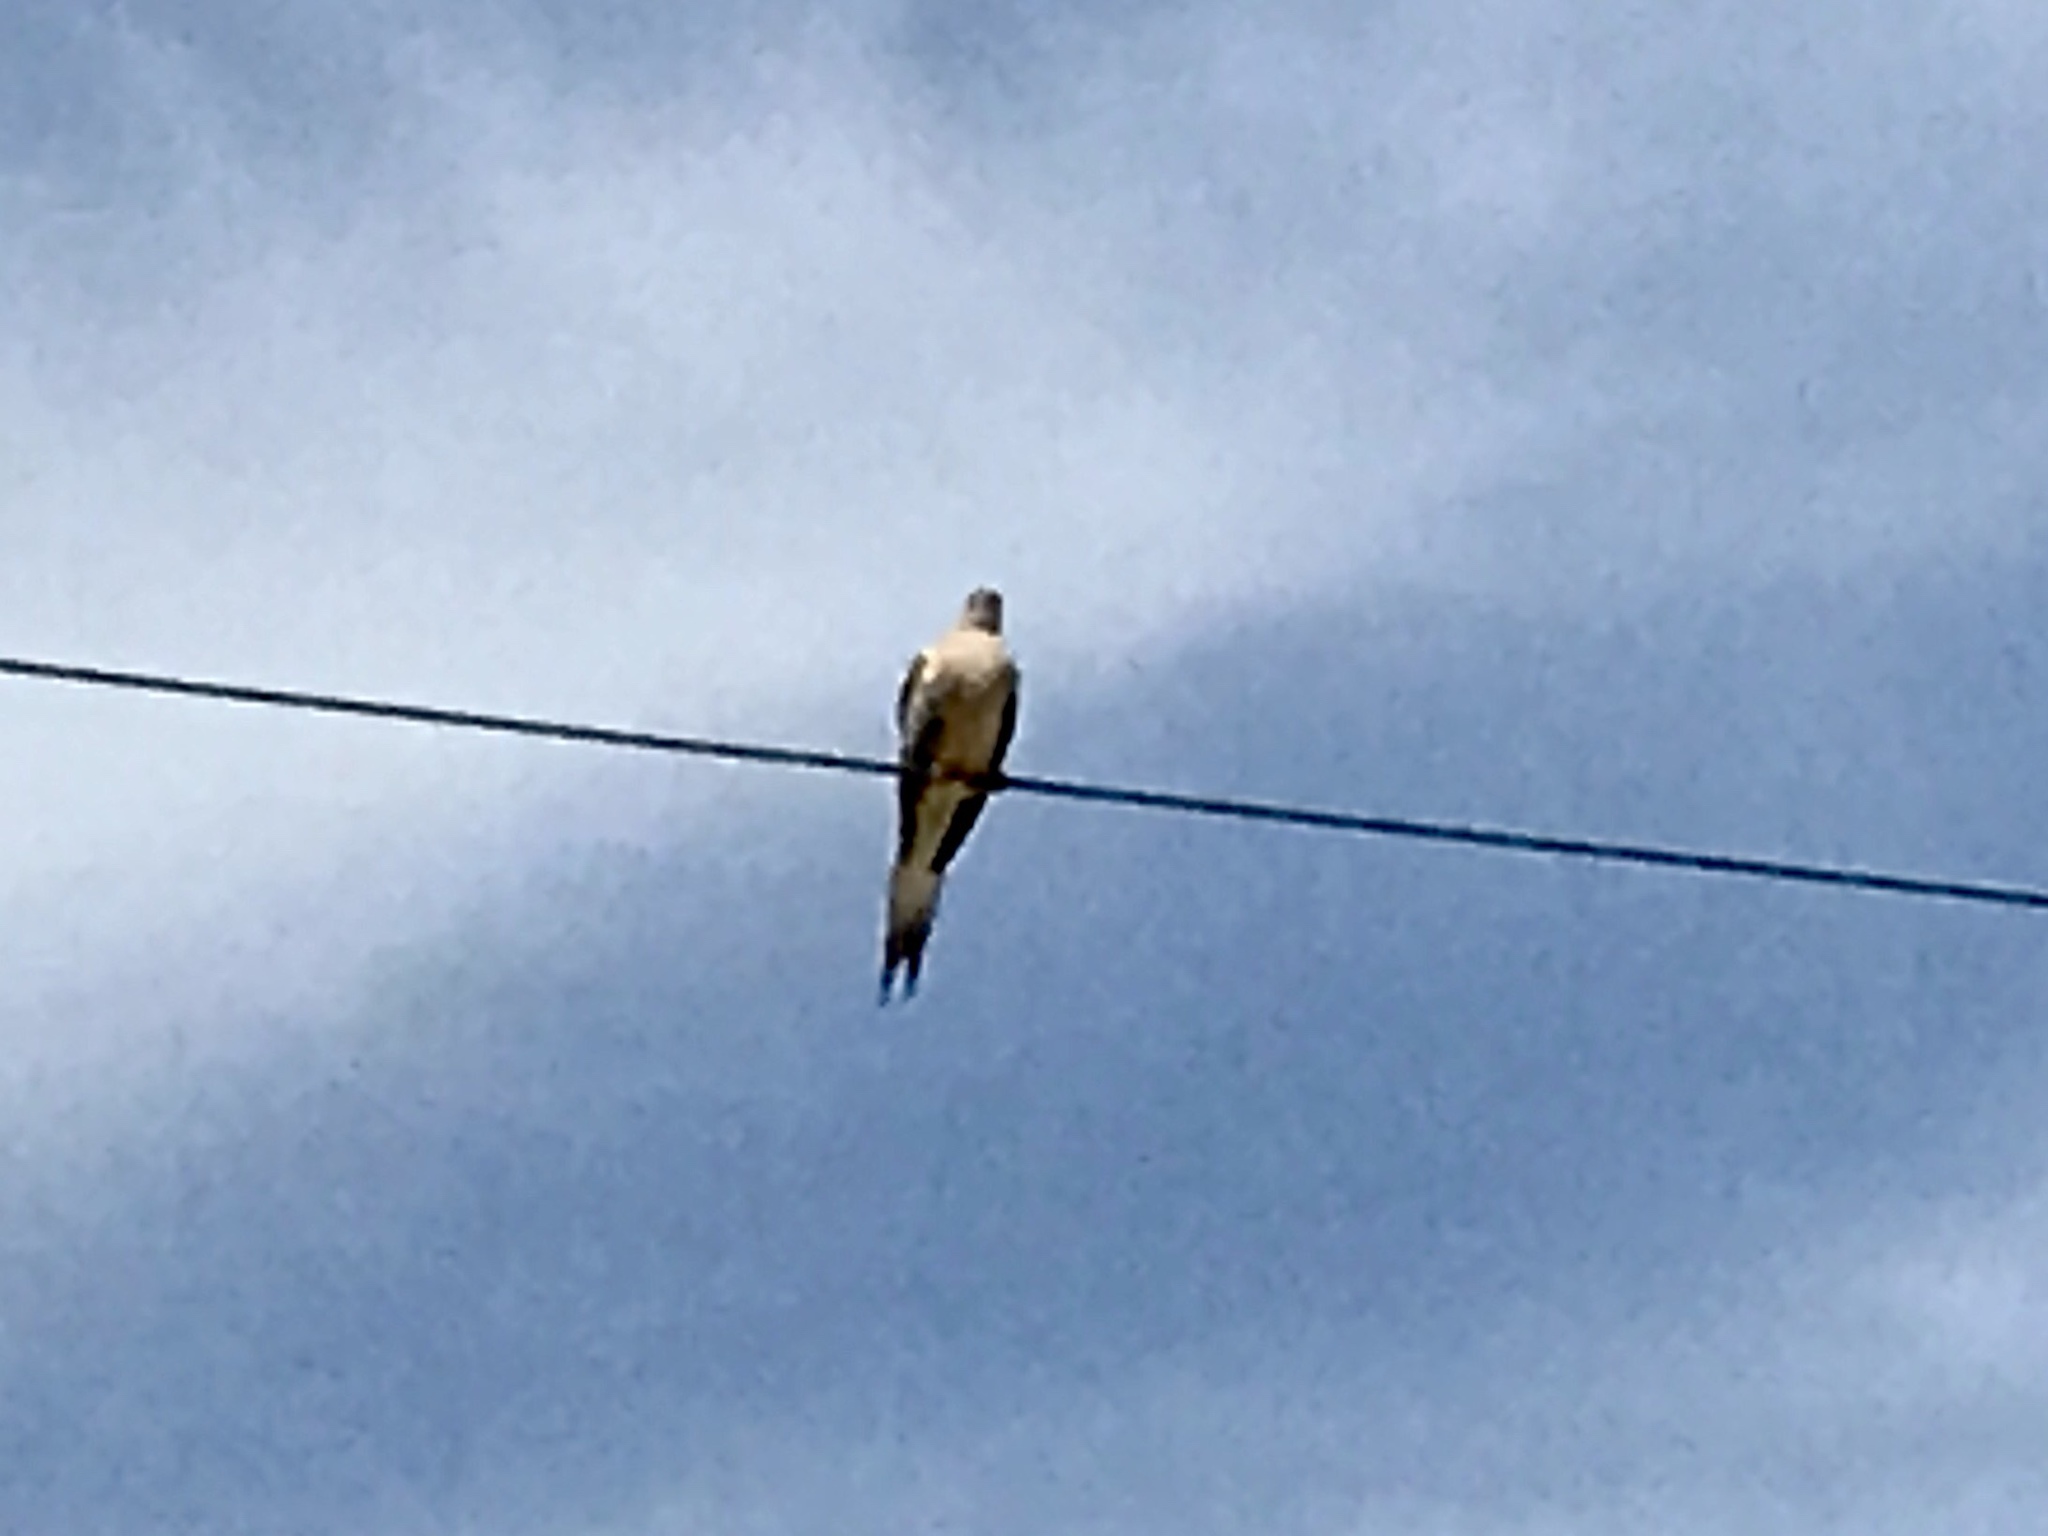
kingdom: Animalia
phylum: Chordata
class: Aves
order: Columbiformes
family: Columbidae
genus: Zenaida
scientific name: Zenaida macroura
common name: Mourning dove
